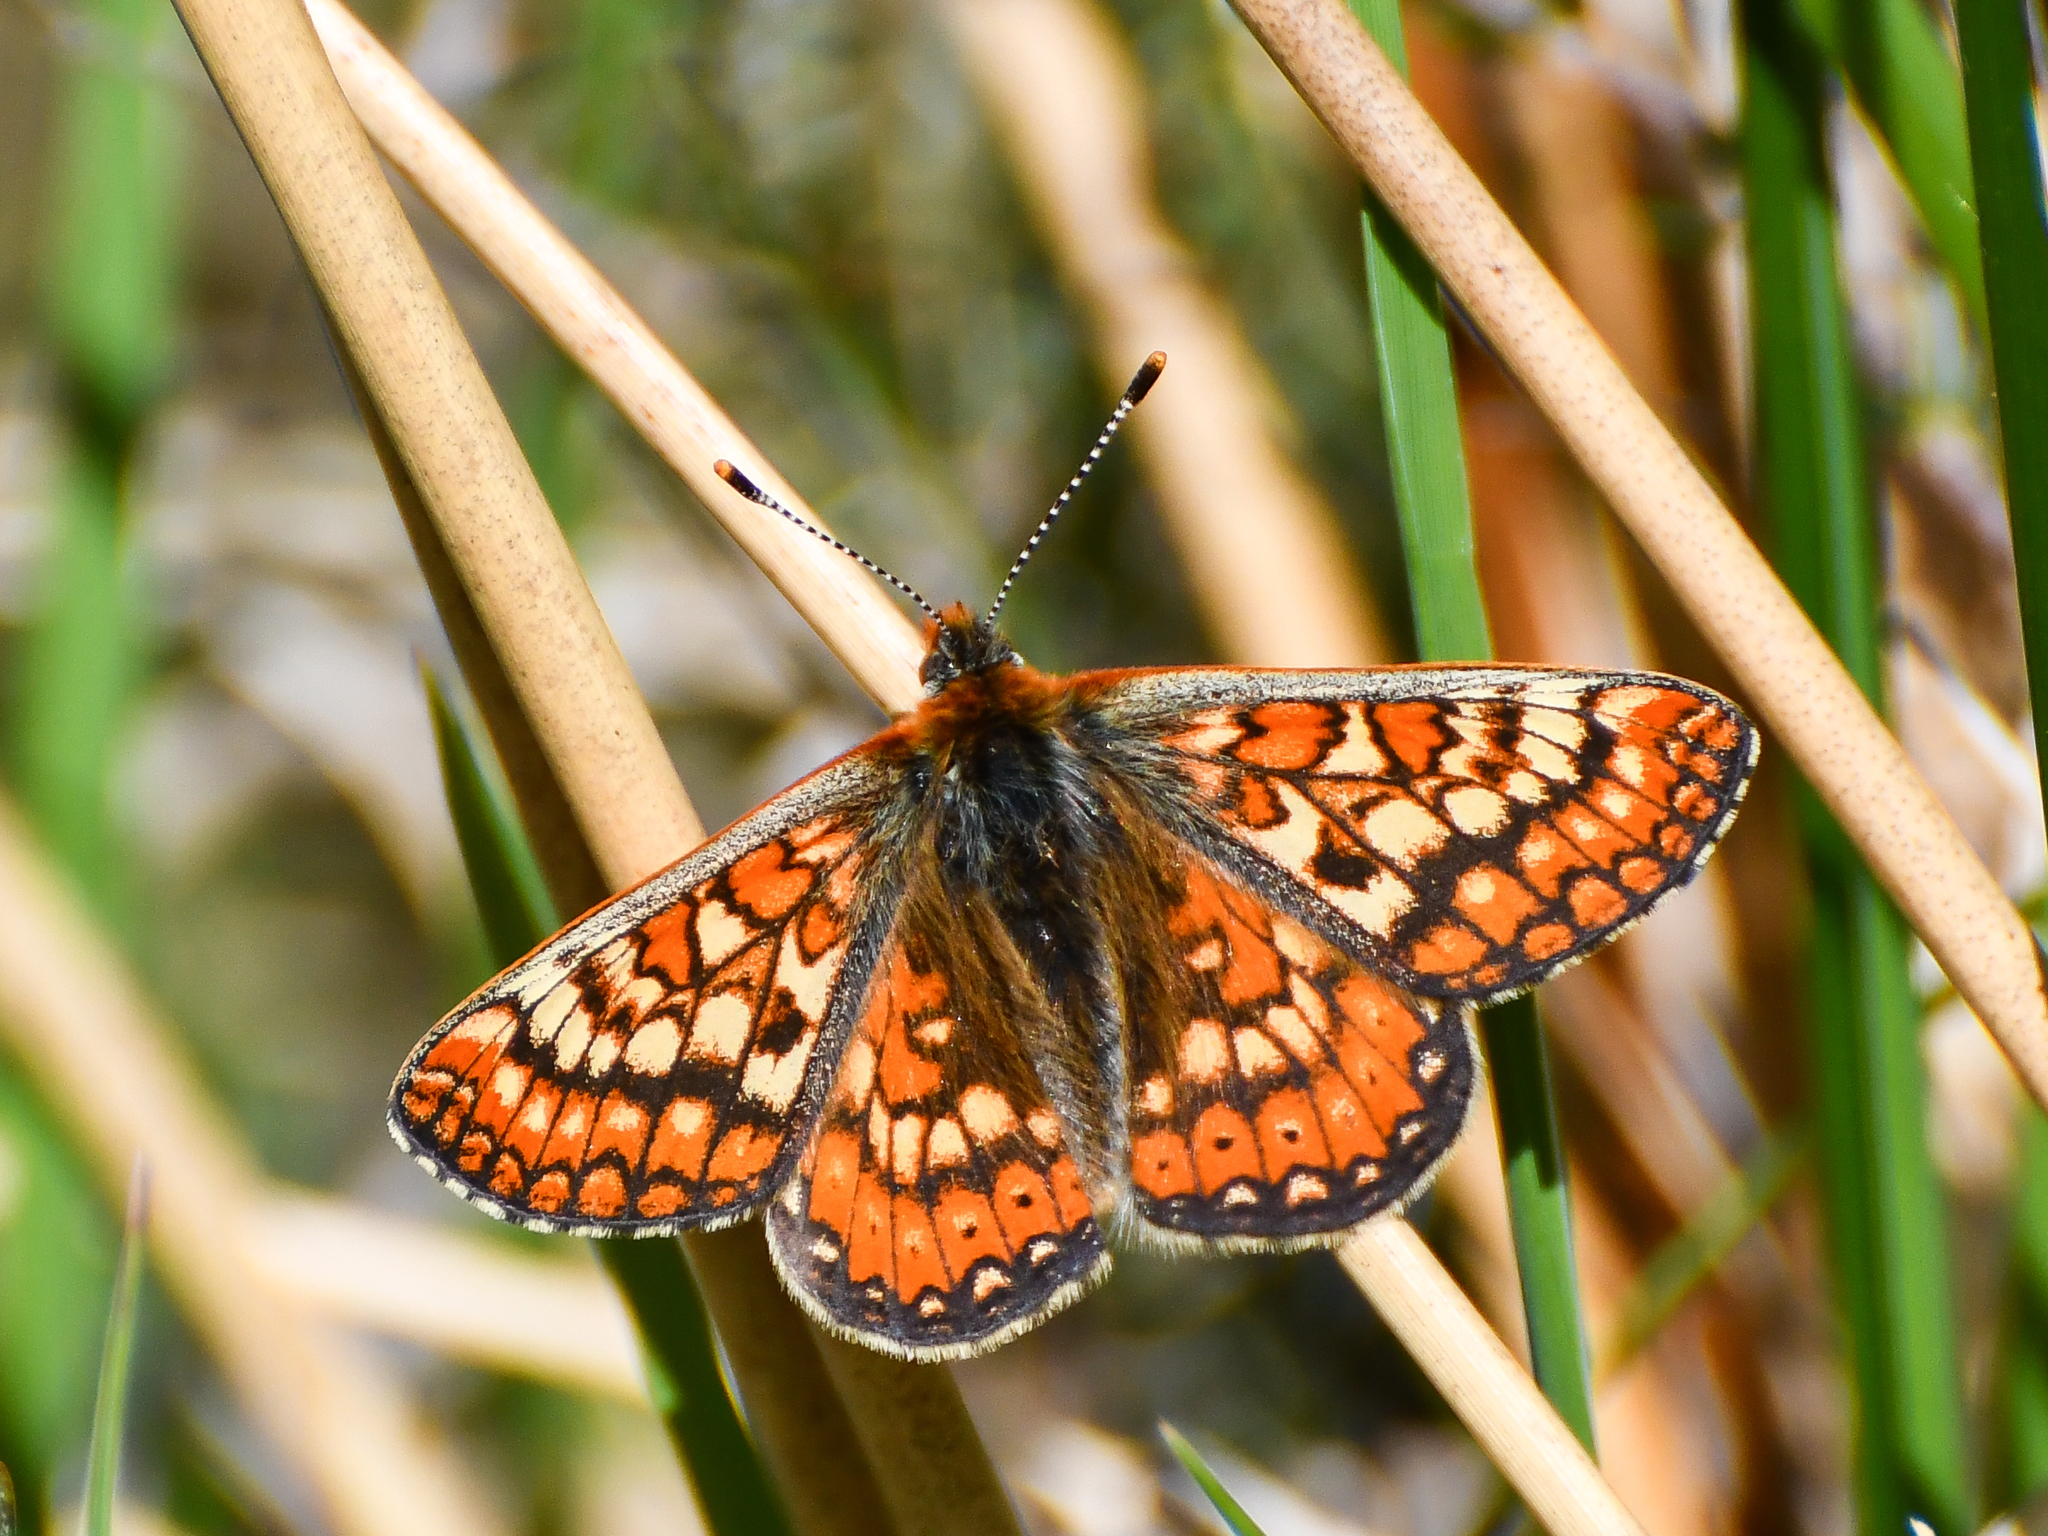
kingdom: Animalia
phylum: Arthropoda
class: Insecta
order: Lepidoptera
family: Nymphalidae
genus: Euphydryas
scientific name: Euphydryas aurinia
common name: Marsh fritillary
